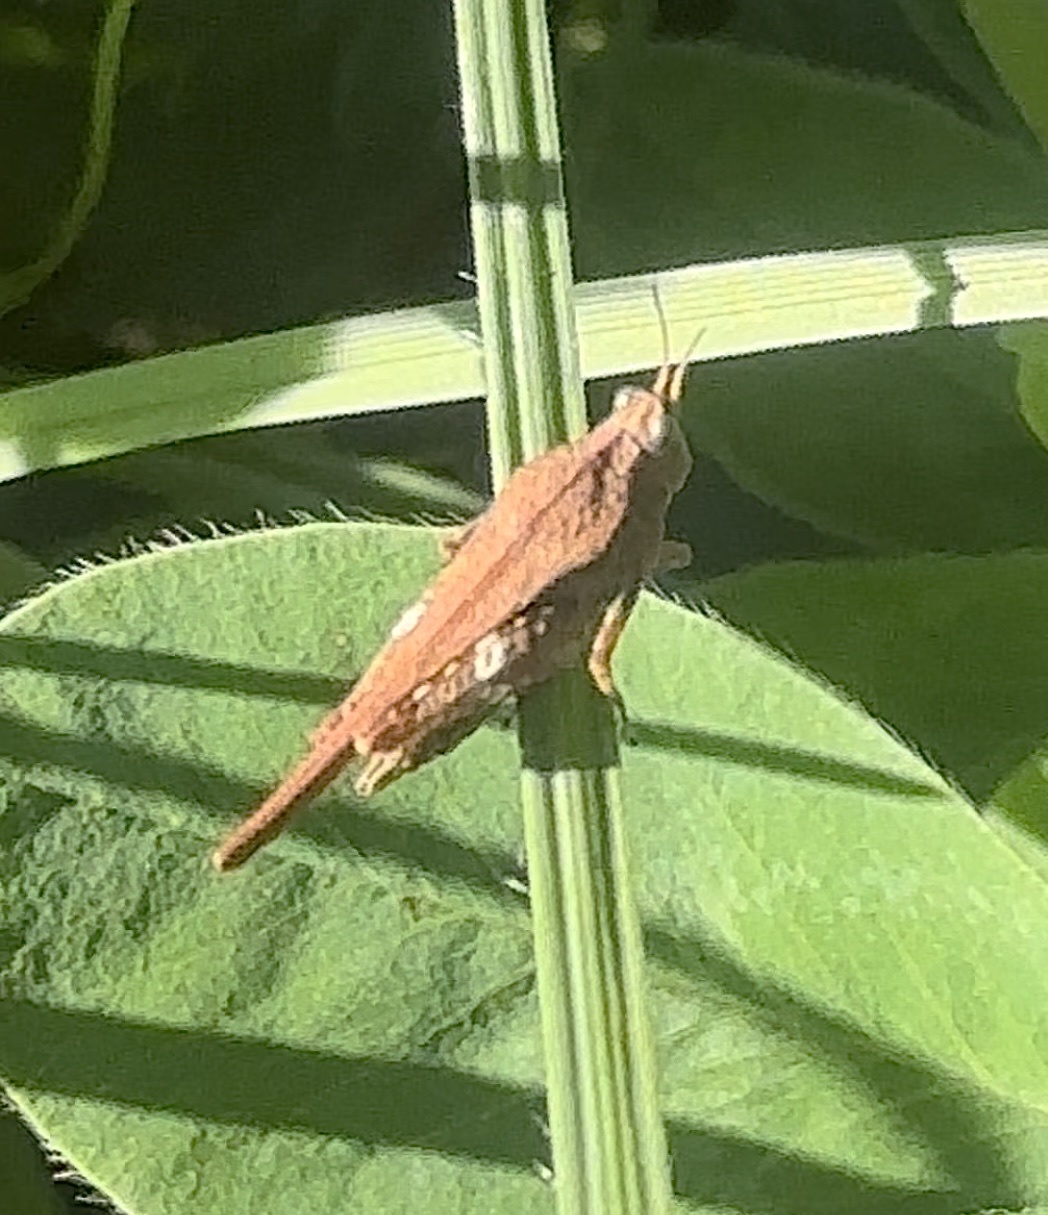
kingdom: Animalia
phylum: Arthropoda
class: Insecta
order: Orthoptera
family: Tetrigidae
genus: Tetrix
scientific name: Tetrix subulata
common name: Slender ground-hopper
